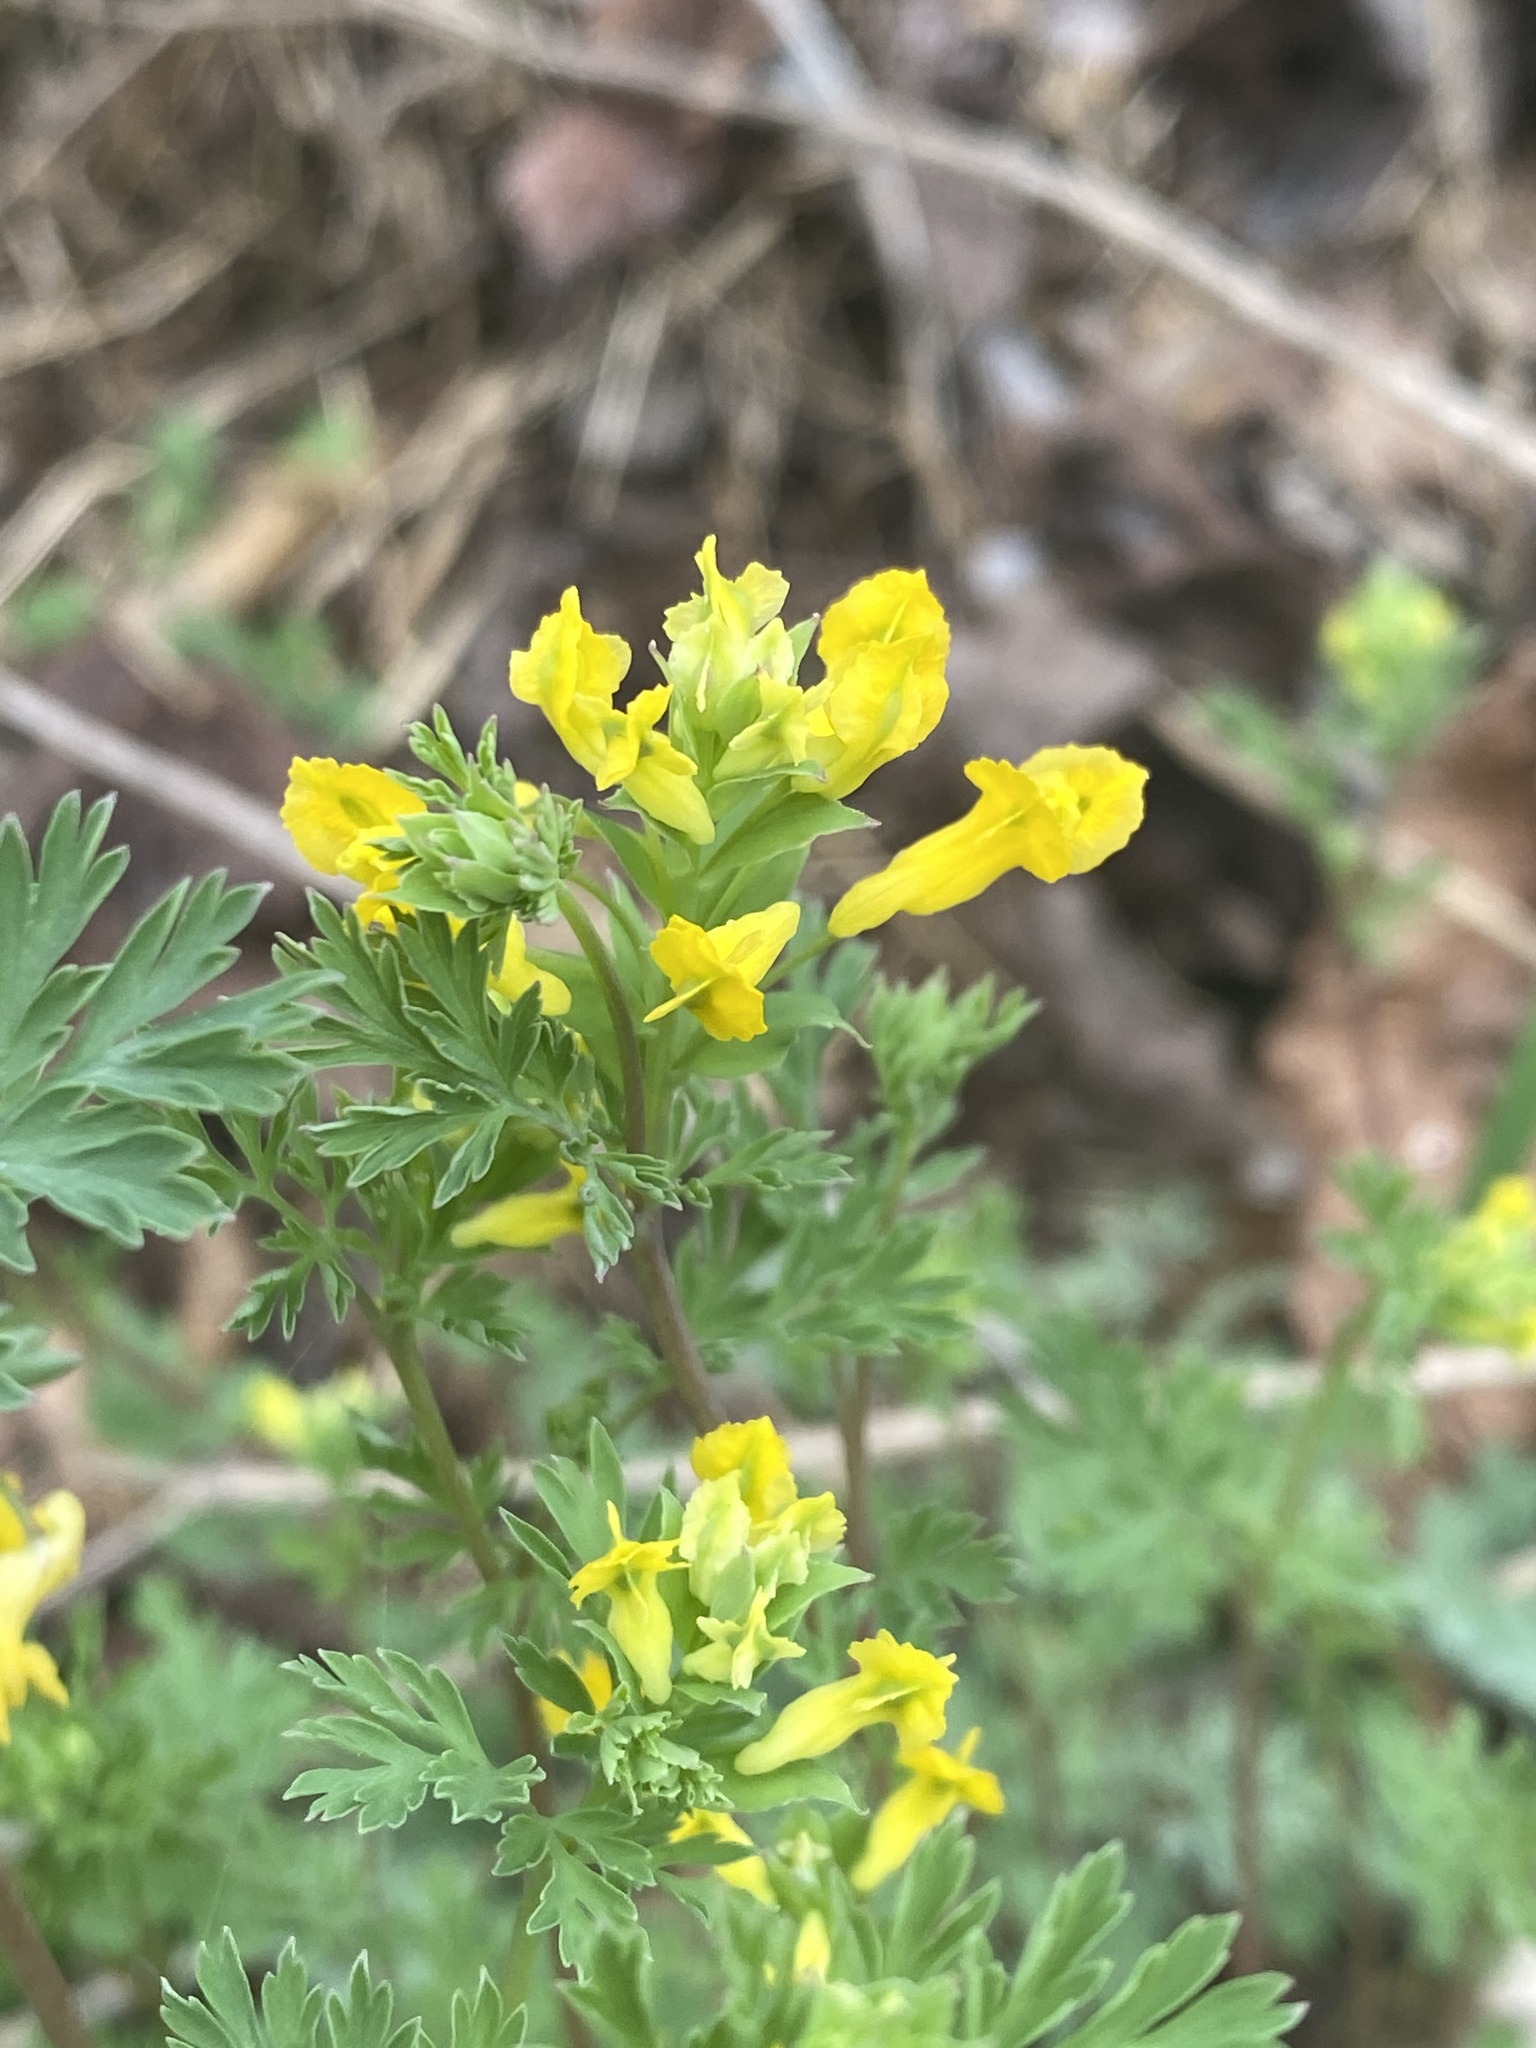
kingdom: Plantae
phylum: Tracheophyta
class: Magnoliopsida
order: Ranunculales
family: Papaveraceae
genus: Corydalis
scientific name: Corydalis flavula
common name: Yellow corydalis
